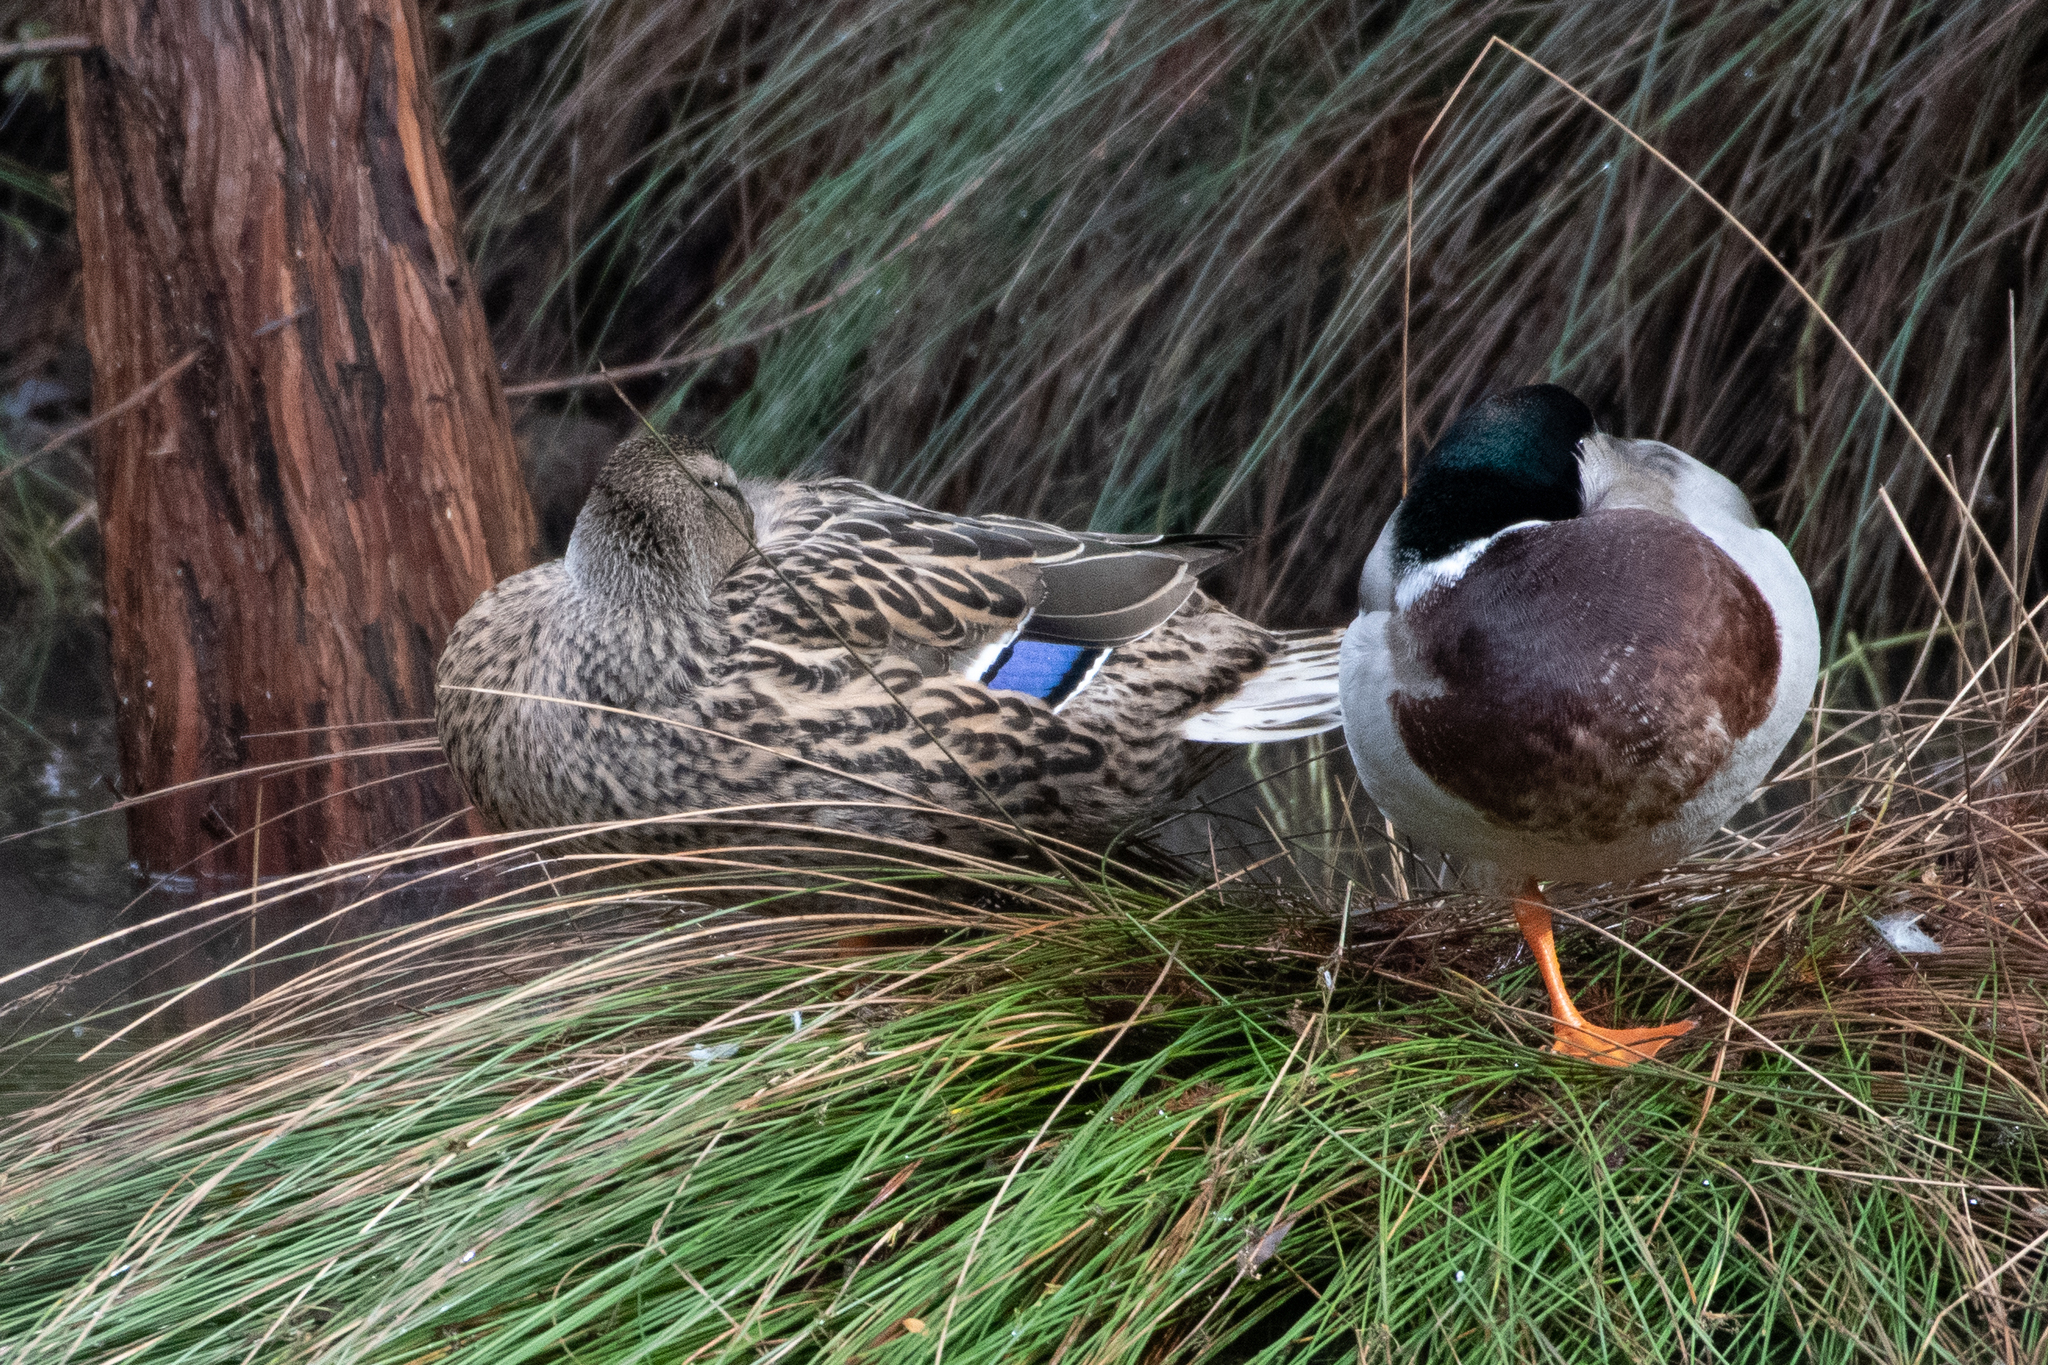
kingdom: Animalia
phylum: Chordata
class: Aves
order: Anseriformes
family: Anatidae
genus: Anas
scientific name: Anas platyrhynchos
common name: Mallard
